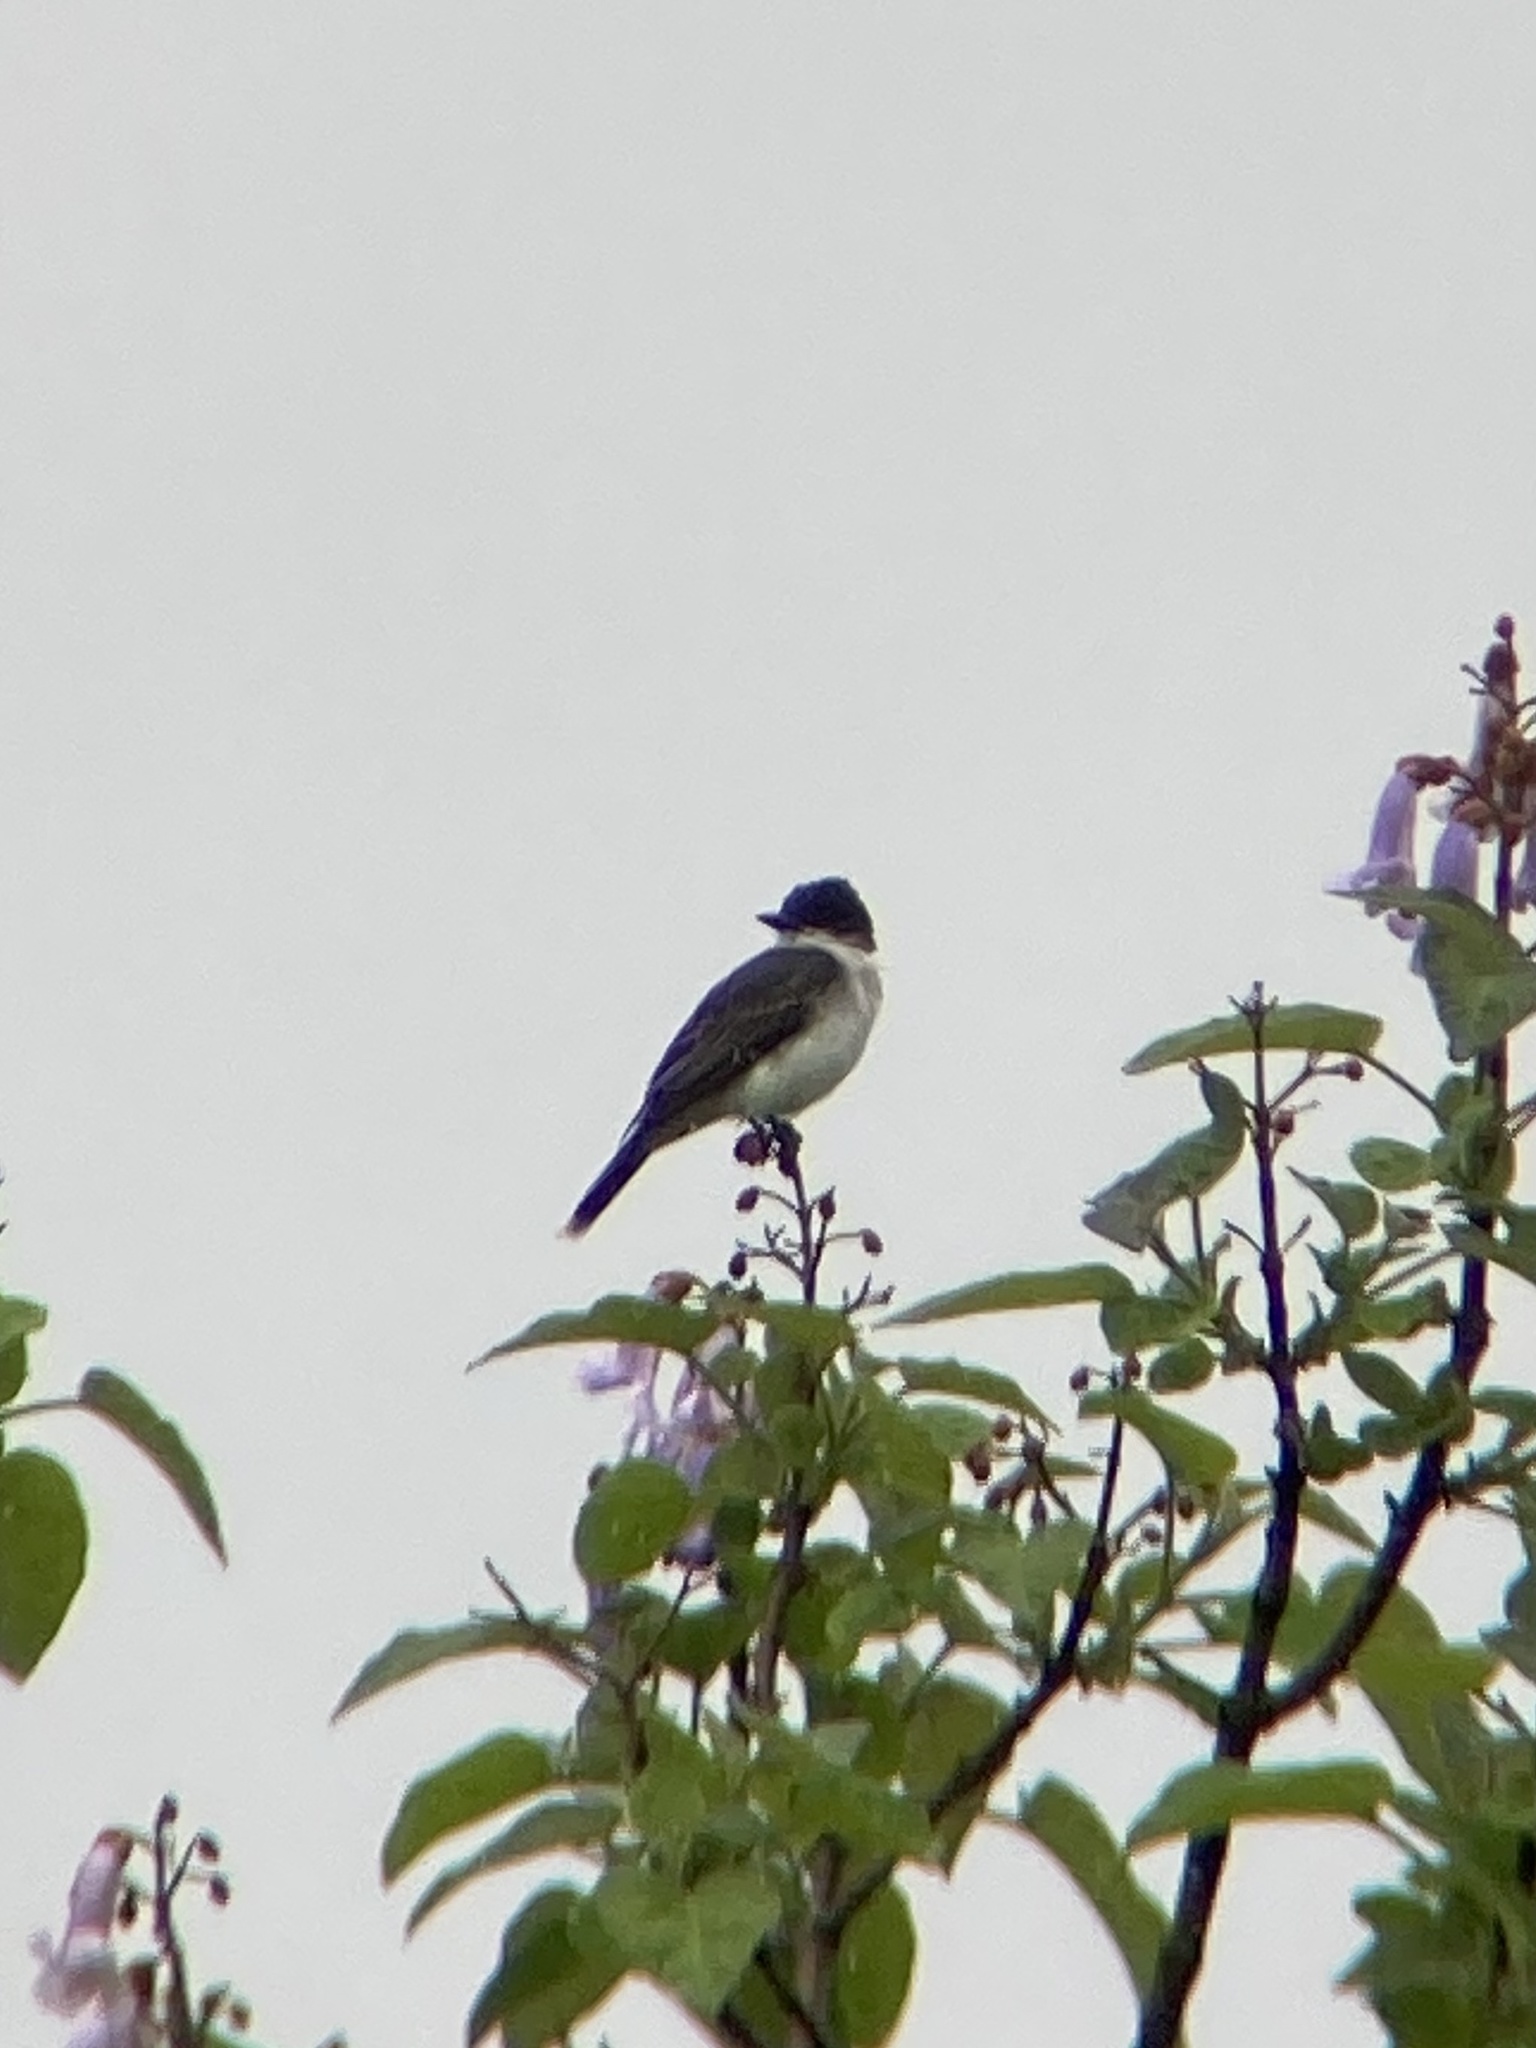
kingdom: Animalia
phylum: Chordata
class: Aves
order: Passeriformes
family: Tyrannidae
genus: Tyrannus
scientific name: Tyrannus tyrannus
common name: Eastern kingbird
